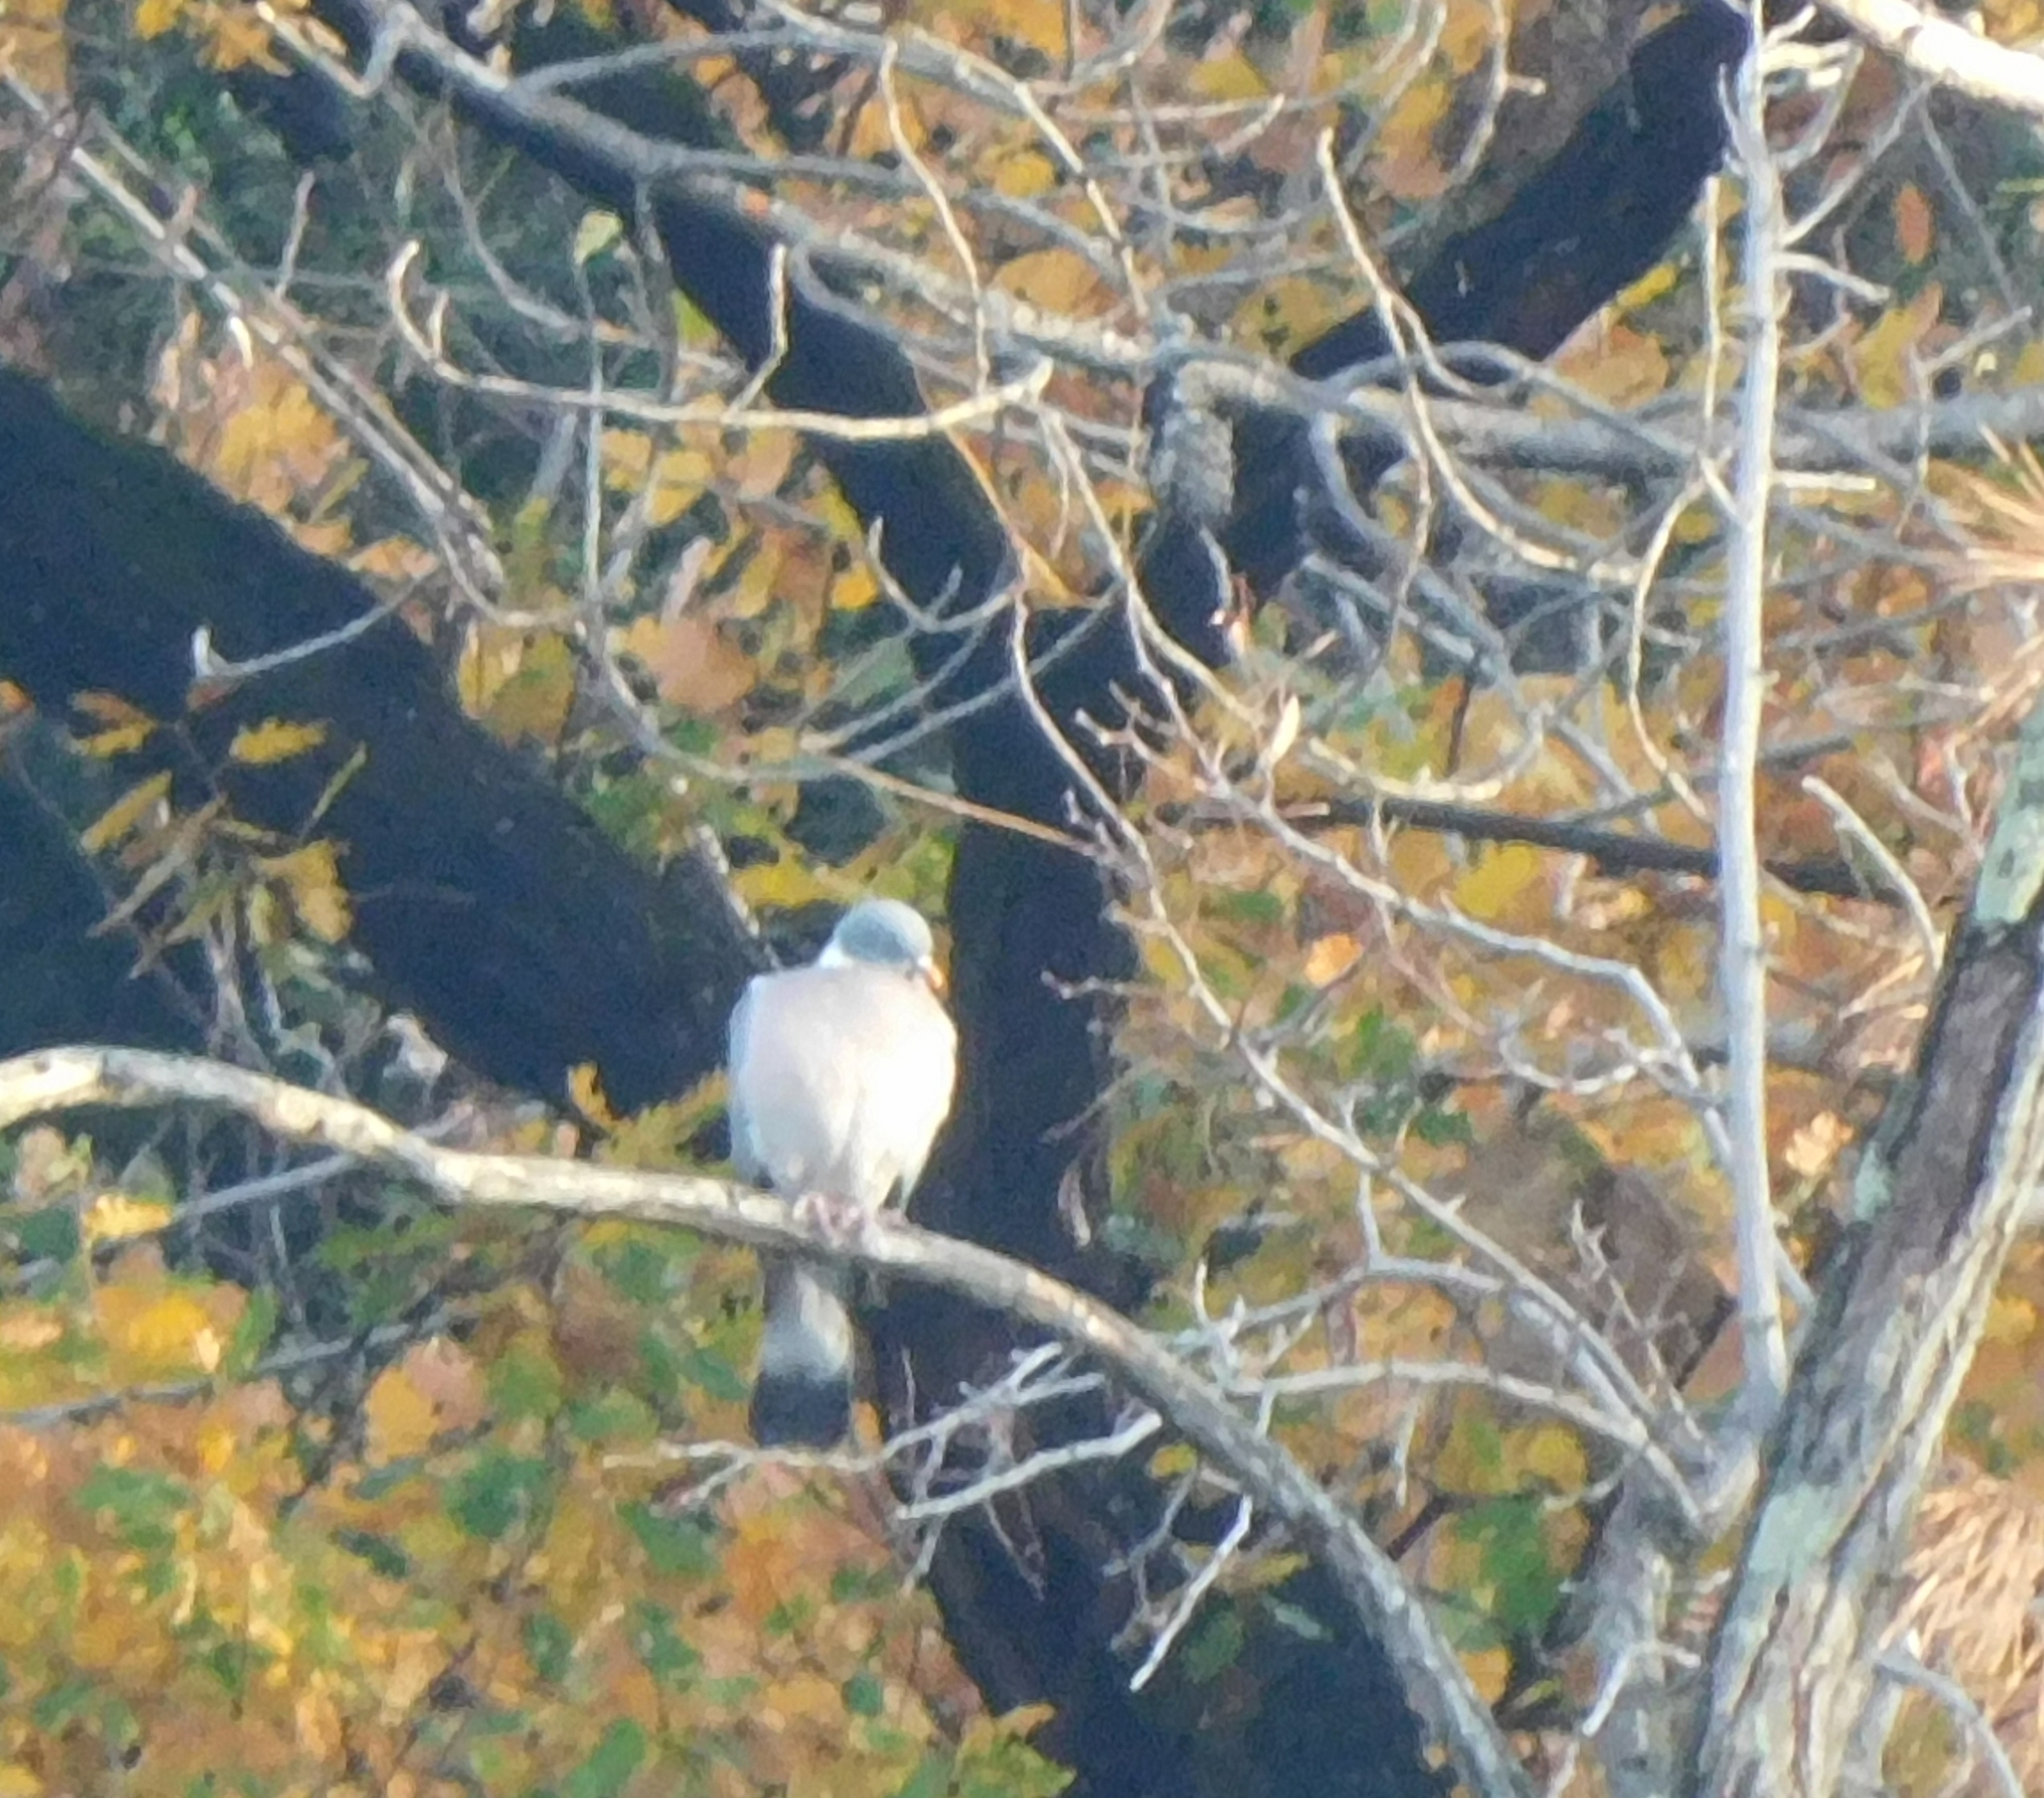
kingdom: Animalia
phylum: Chordata
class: Aves
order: Columbiformes
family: Columbidae
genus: Columba
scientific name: Columba palumbus
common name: Common wood pigeon
